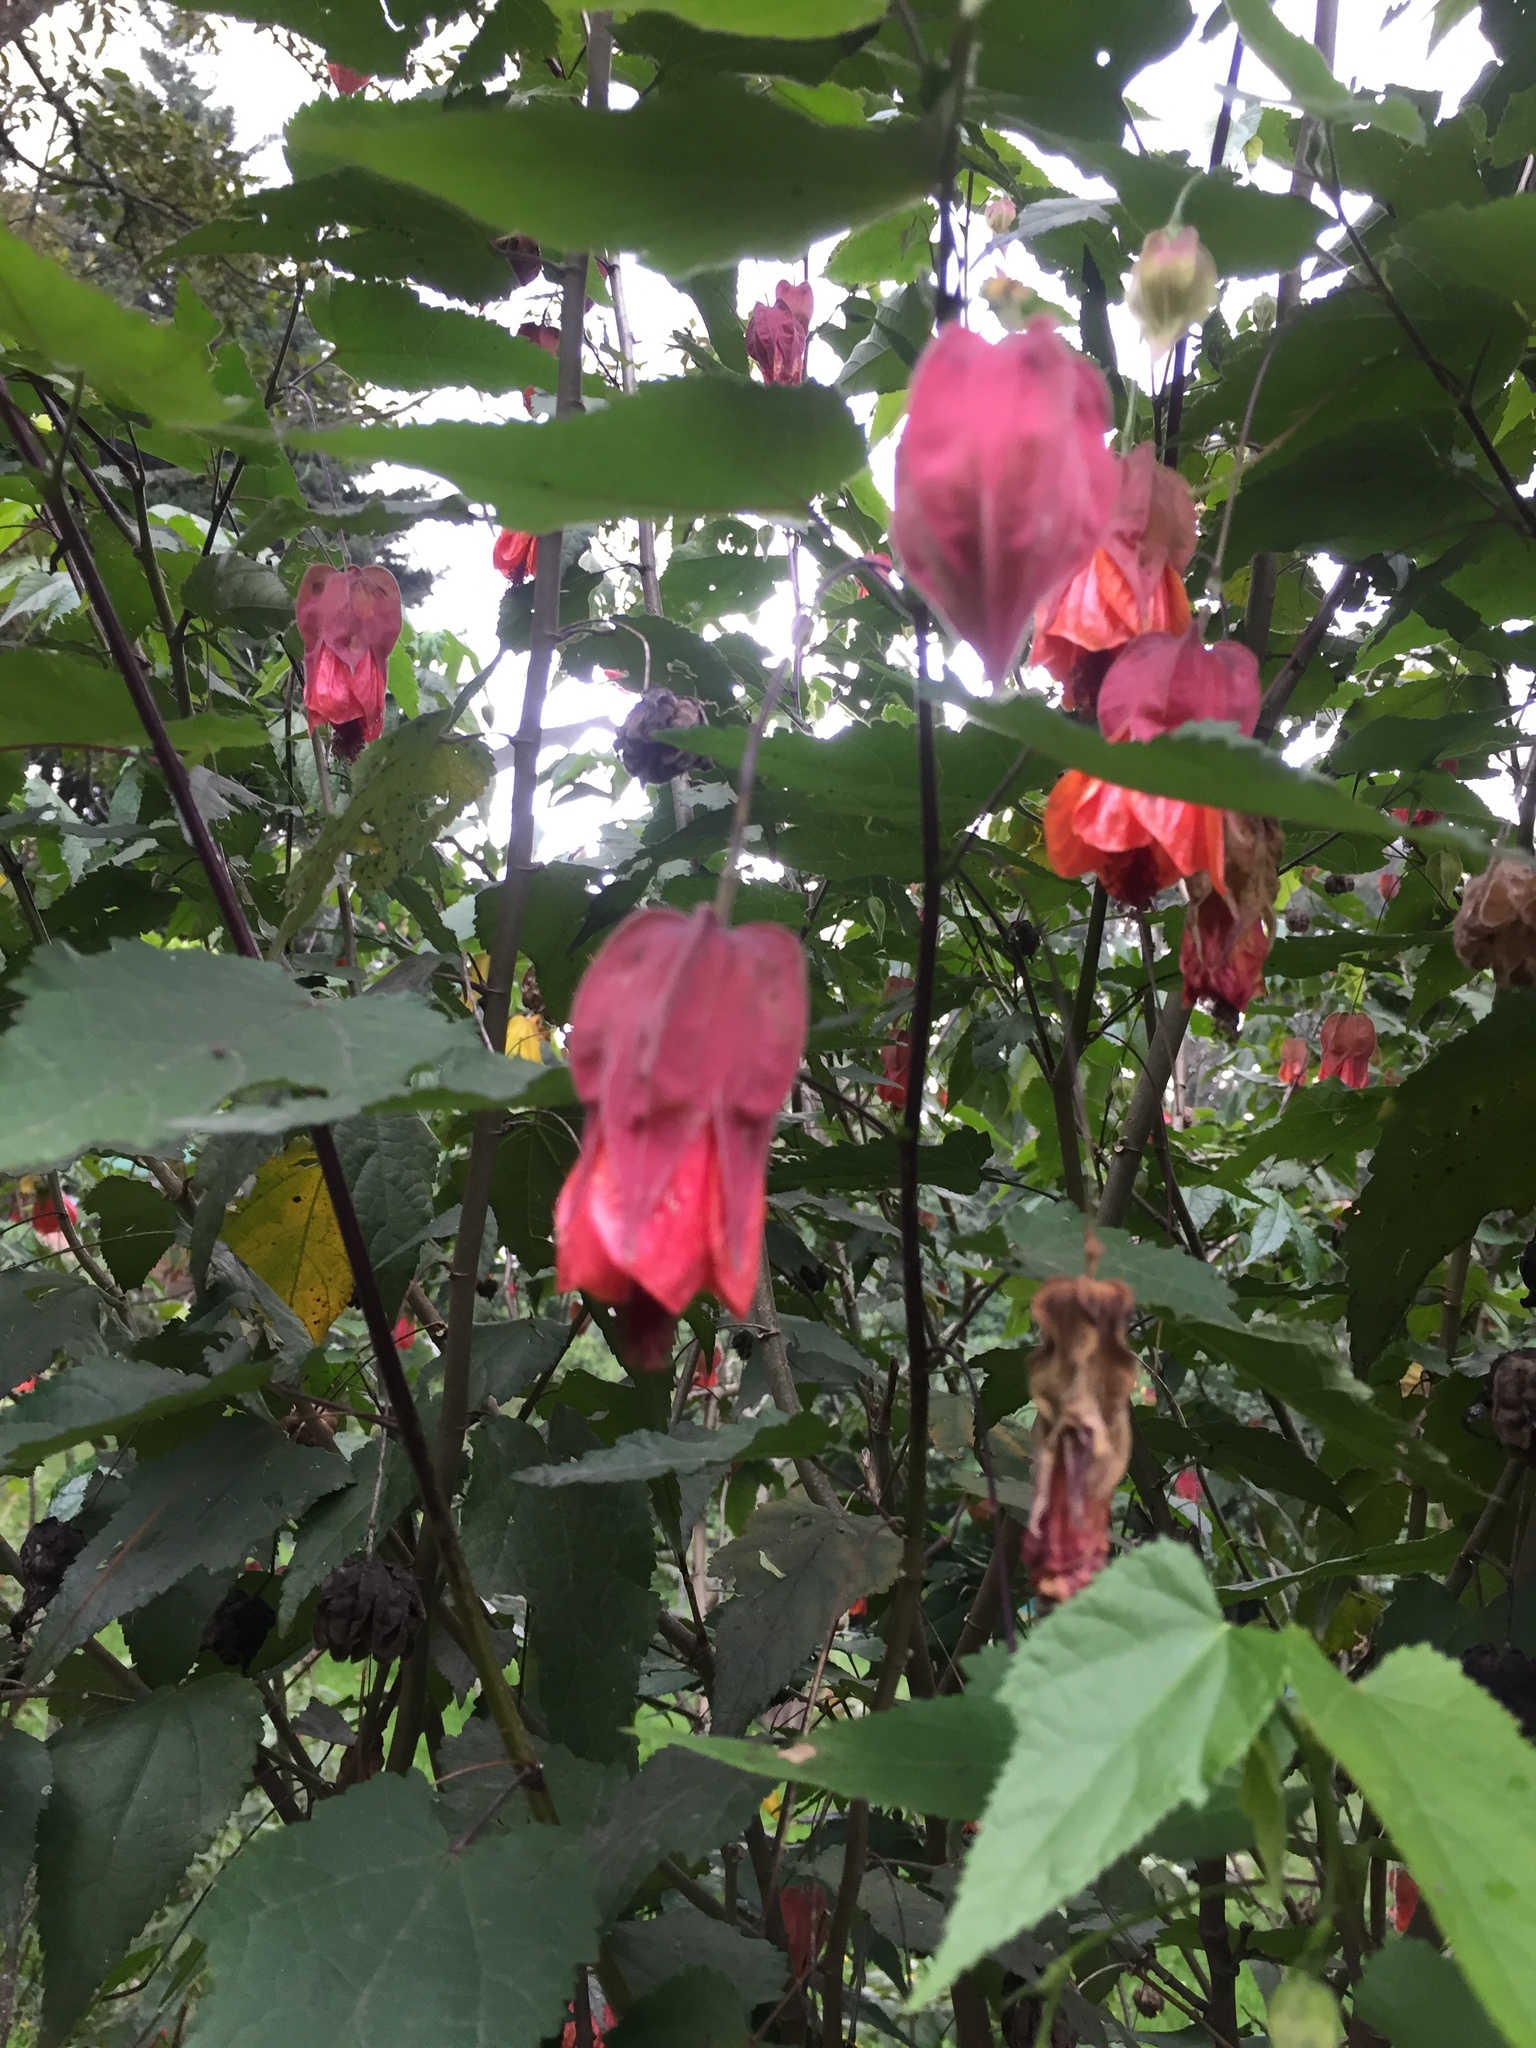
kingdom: Plantae
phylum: Tracheophyta
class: Magnoliopsida
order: Malvales
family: Malvaceae
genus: Callianthe
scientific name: Callianthe megapotamica
